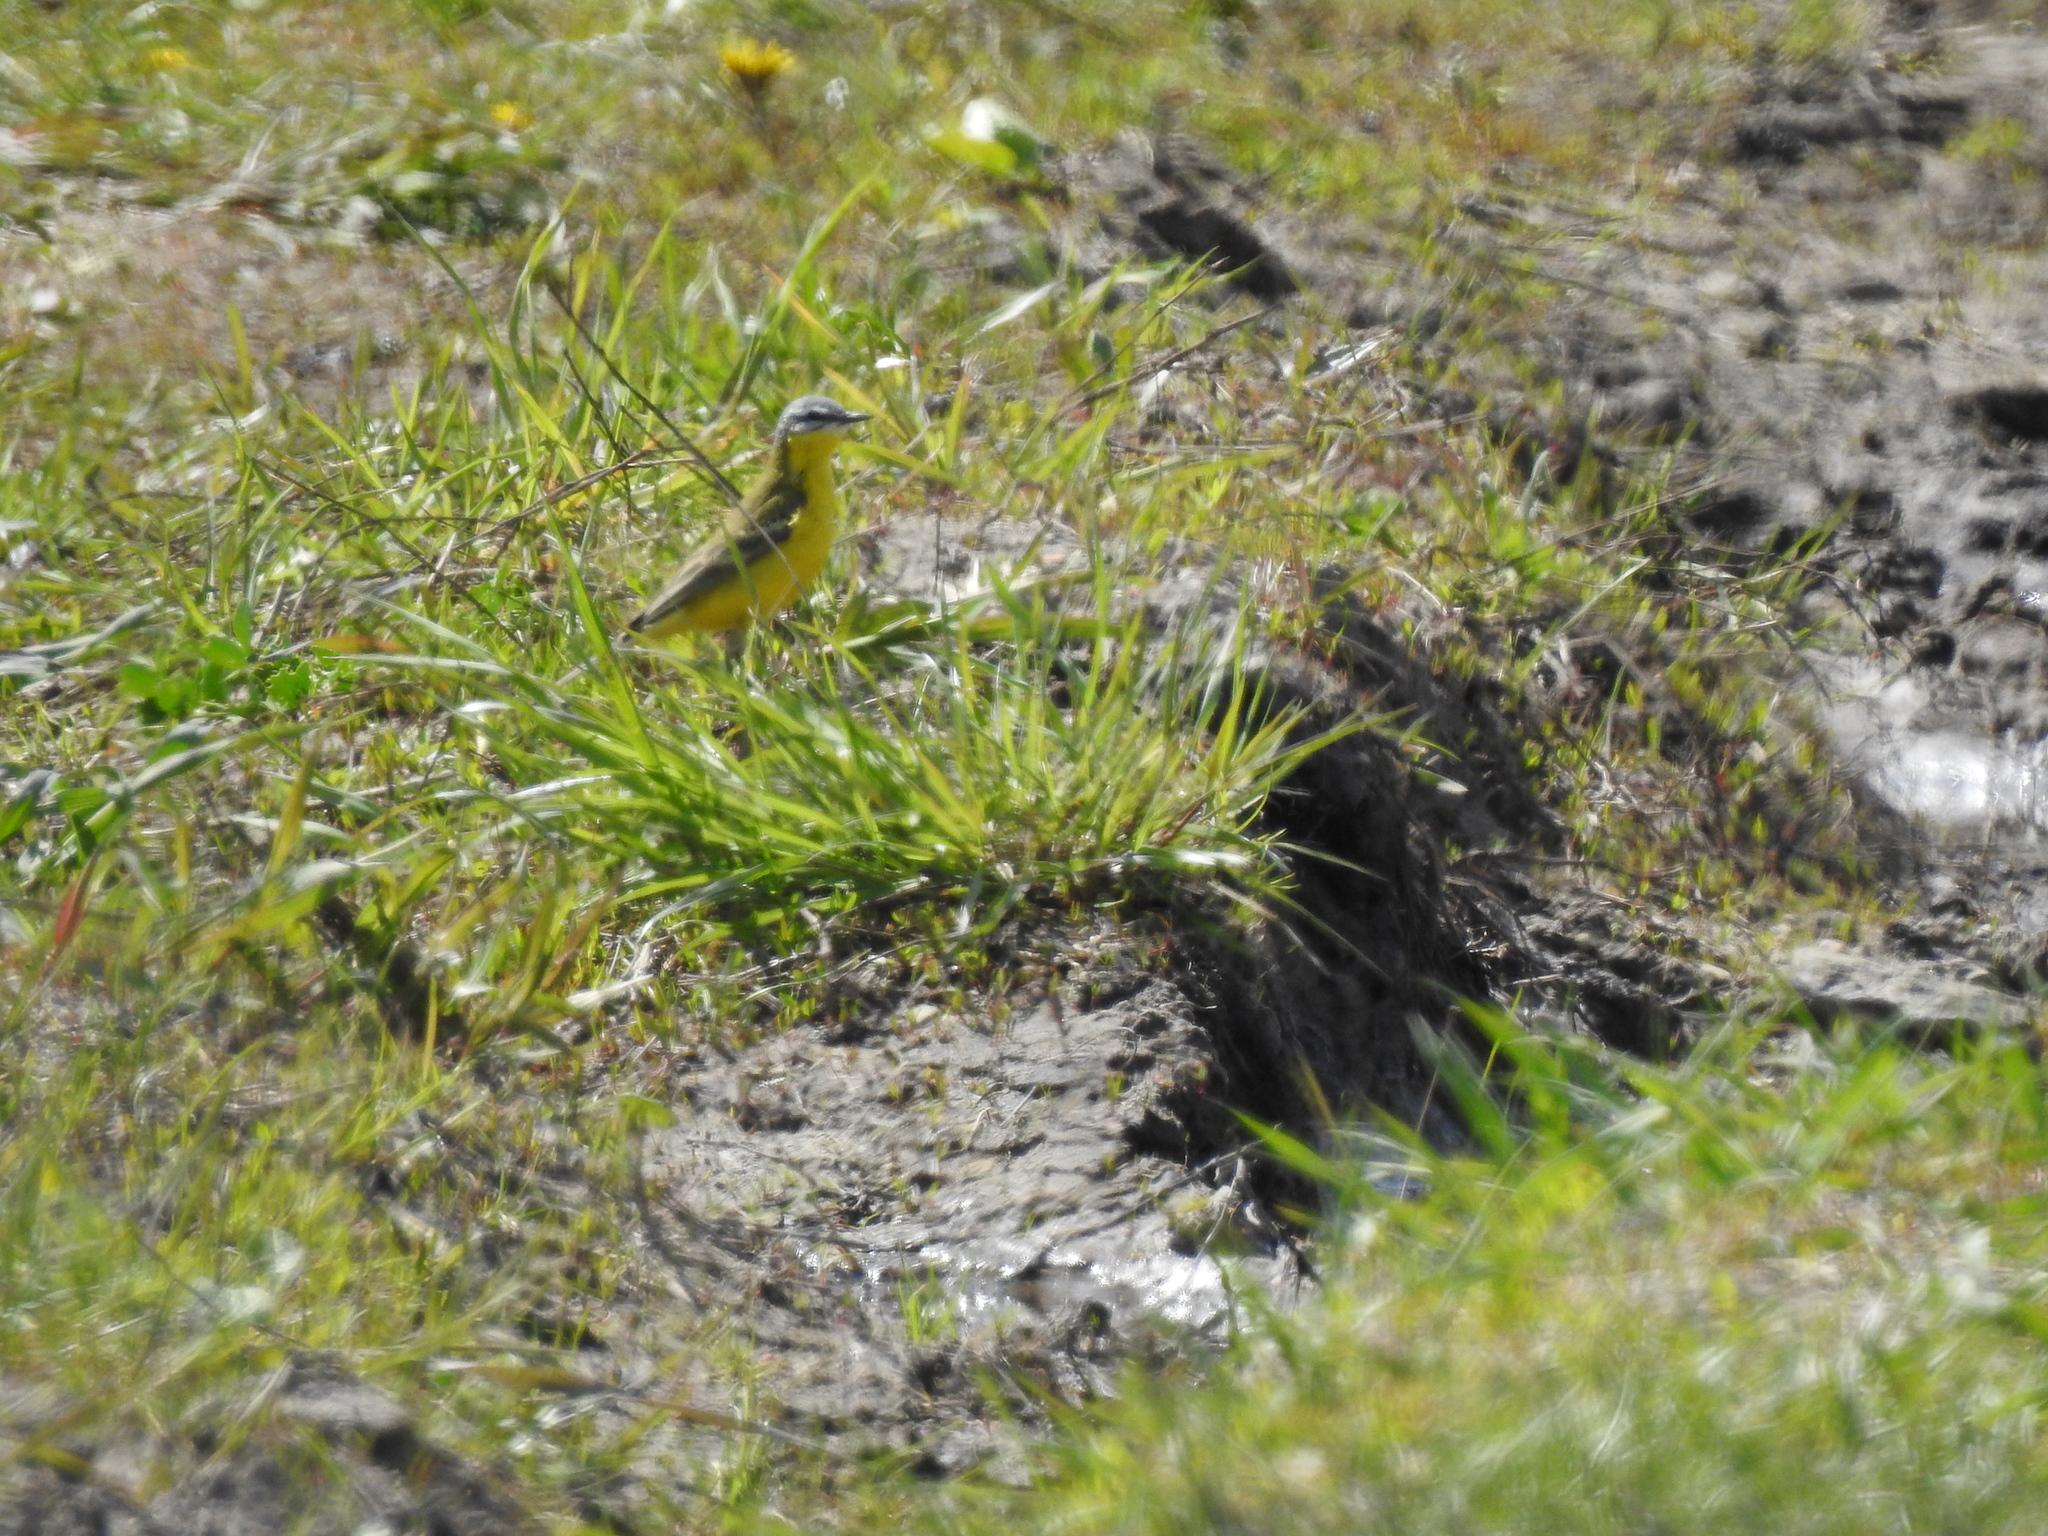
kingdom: Animalia
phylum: Chordata
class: Aves
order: Passeriformes
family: Motacillidae
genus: Motacilla
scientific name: Motacilla flava
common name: Western yellow wagtail
